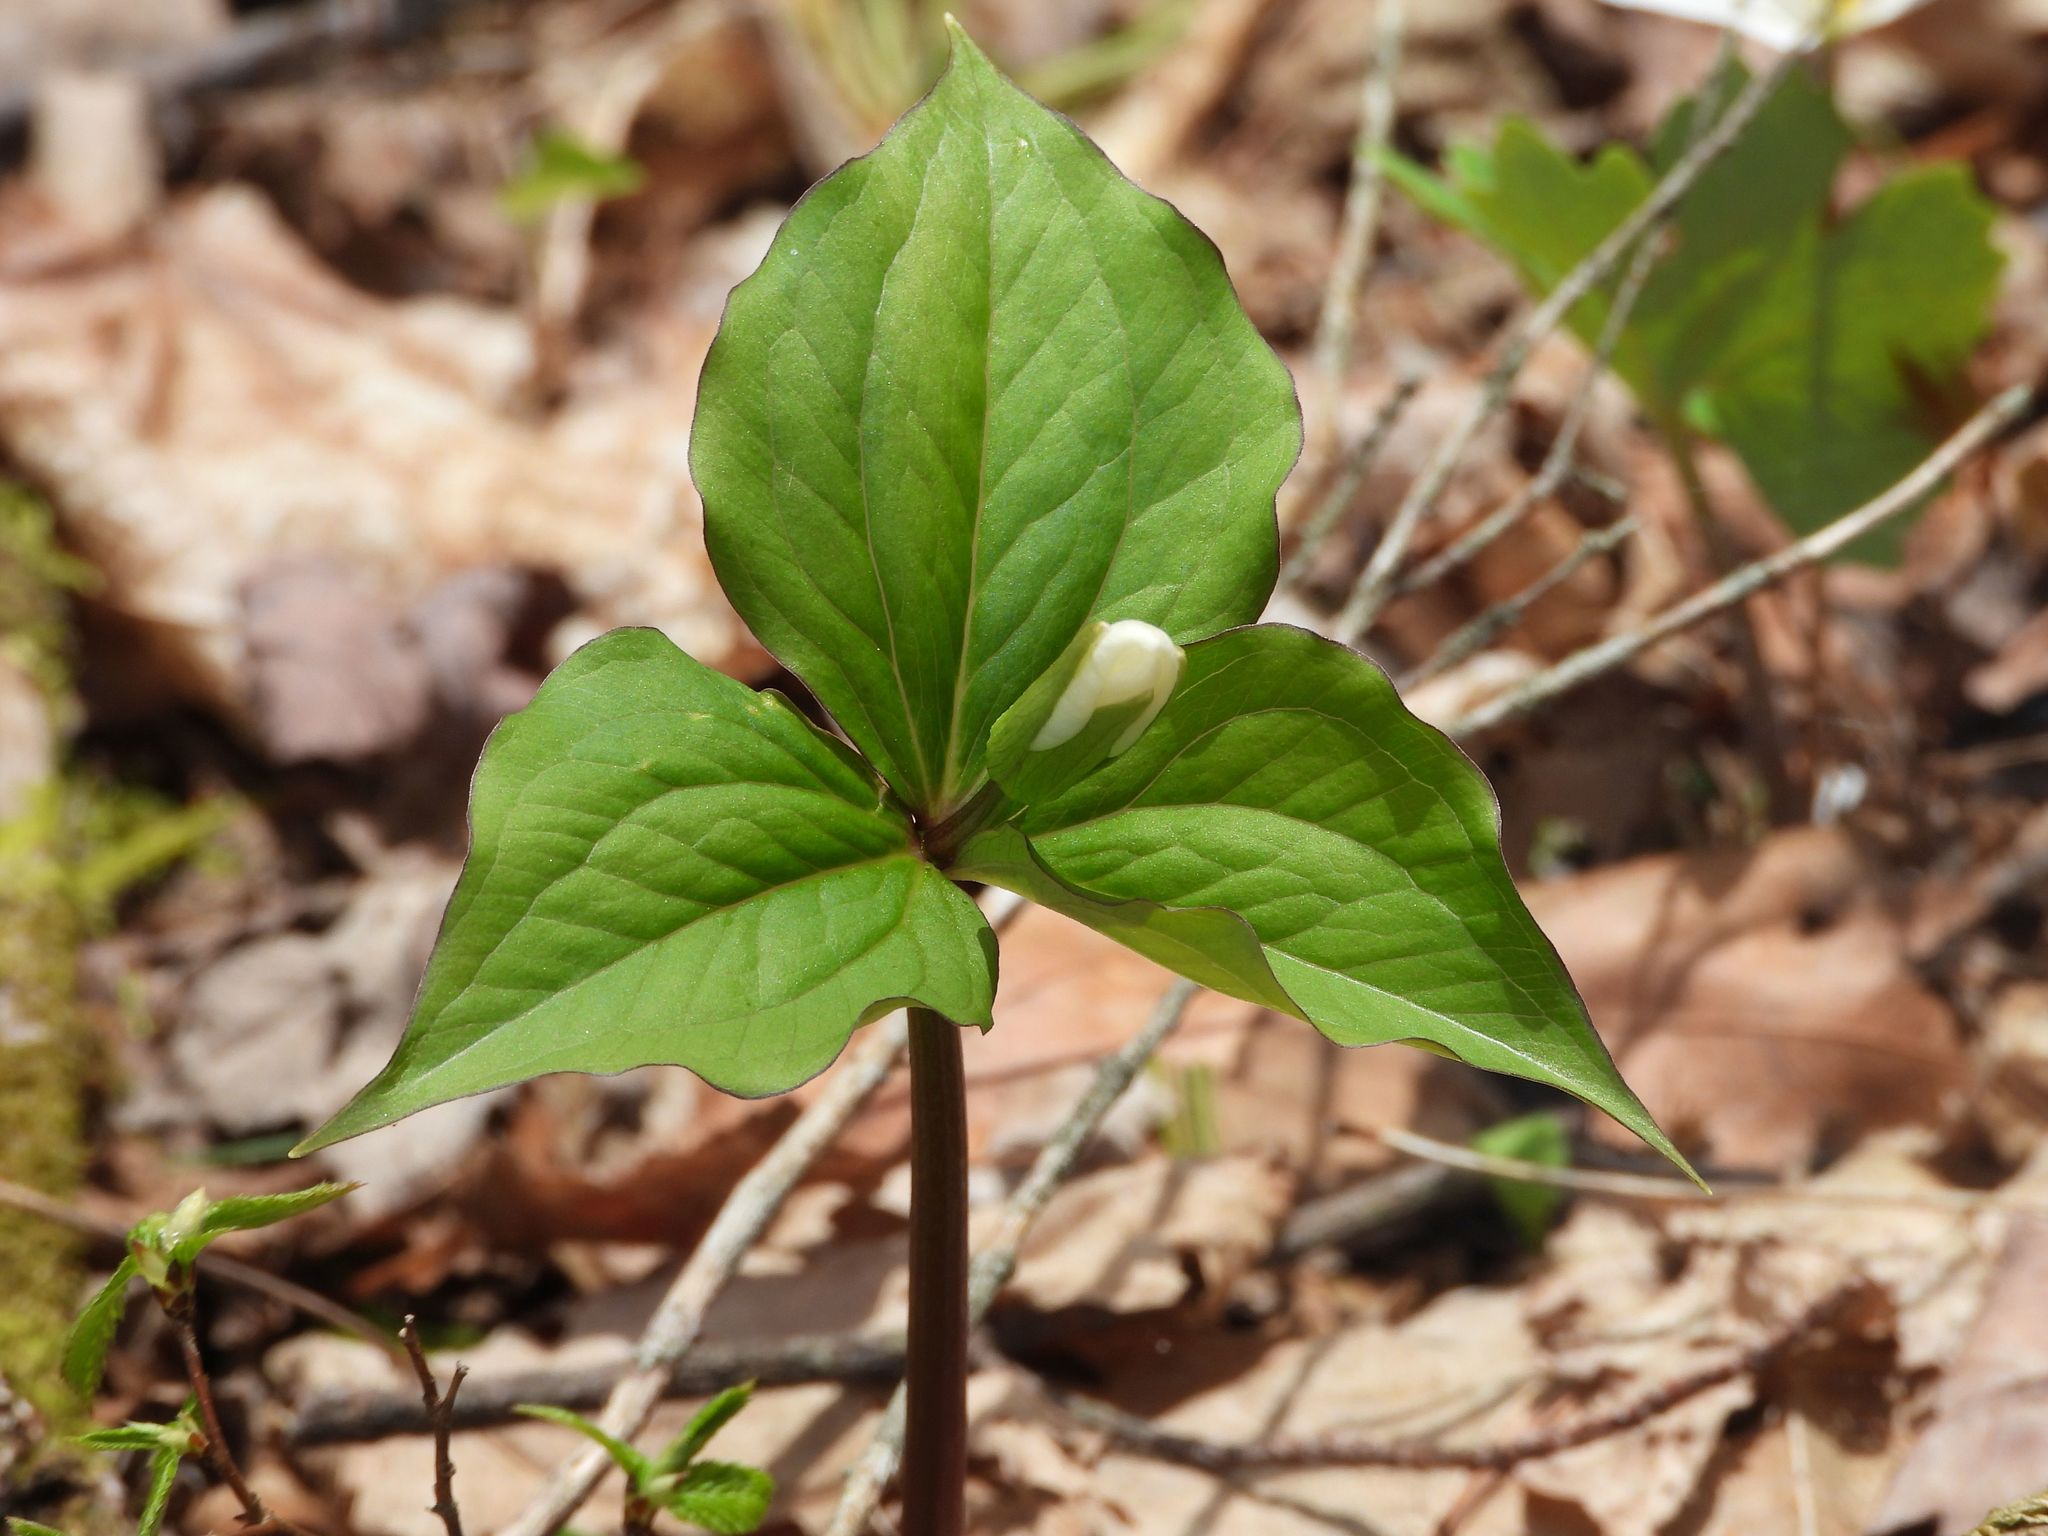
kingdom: Plantae
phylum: Tracheophyta
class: Liliopsida
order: Liliales
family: Melanthiaceae
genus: Trillium
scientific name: Trillium grandiflorum
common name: Great white trillium
